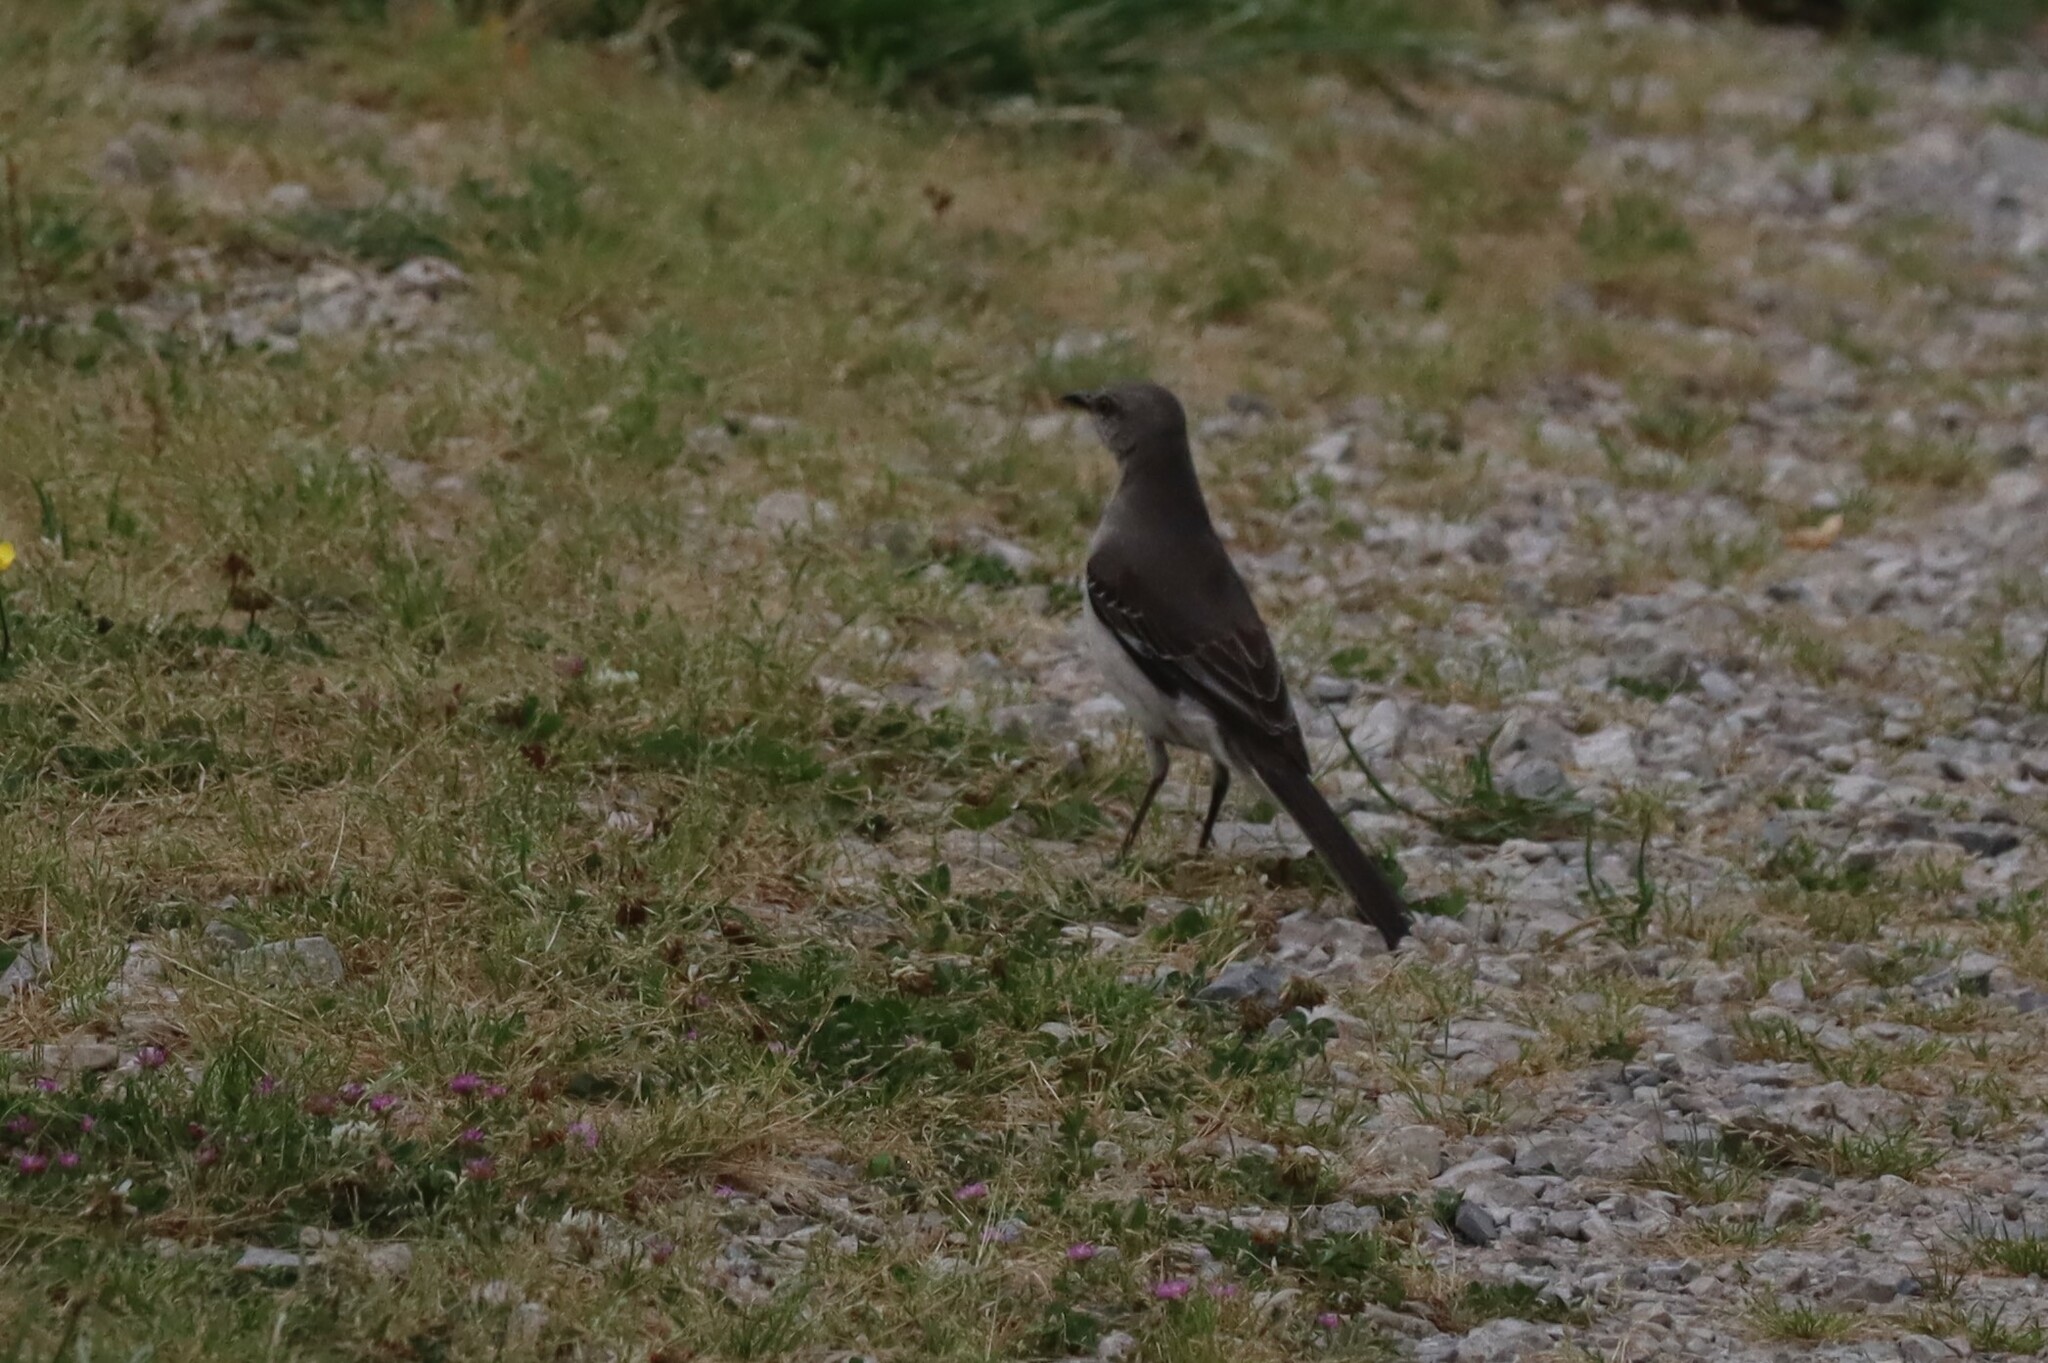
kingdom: Animalia
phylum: Chordata
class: Aves
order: Passeriformes
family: Mimidae
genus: Mimus
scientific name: Mimus polyglottos
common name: Northern mockingbird
